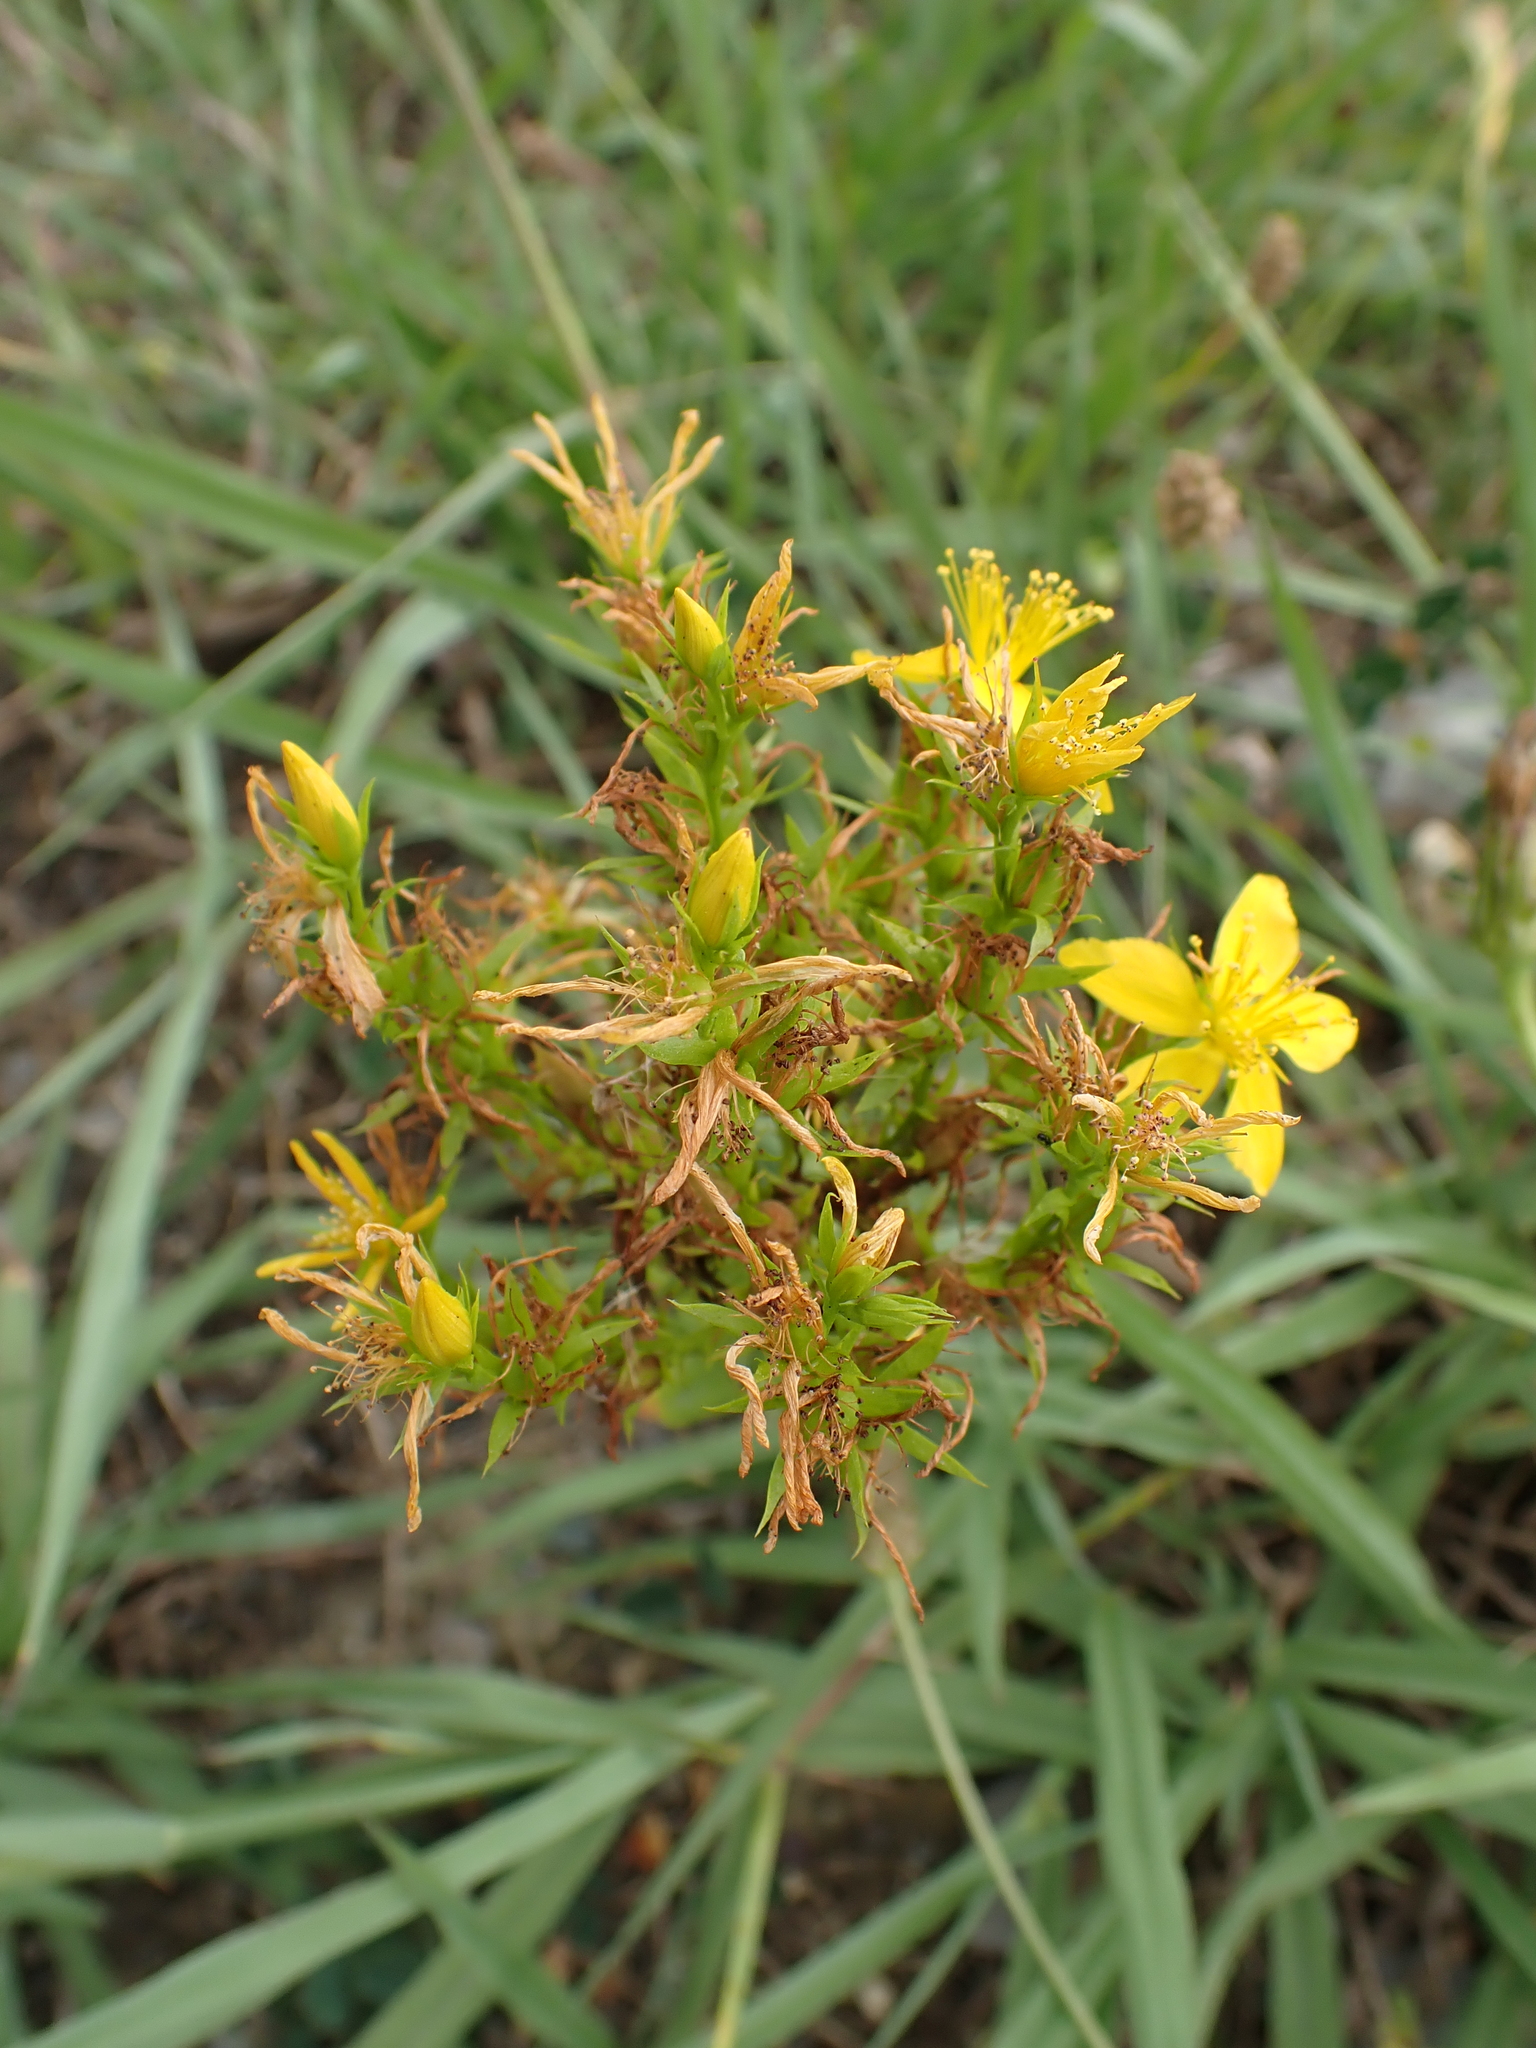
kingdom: Plantae
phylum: Tracheophyta
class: Magnoliopsida
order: Malpighiales
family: Hypericaceae
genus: Hypericum
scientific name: Hypericum perforatum
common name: Common st. johnswort
